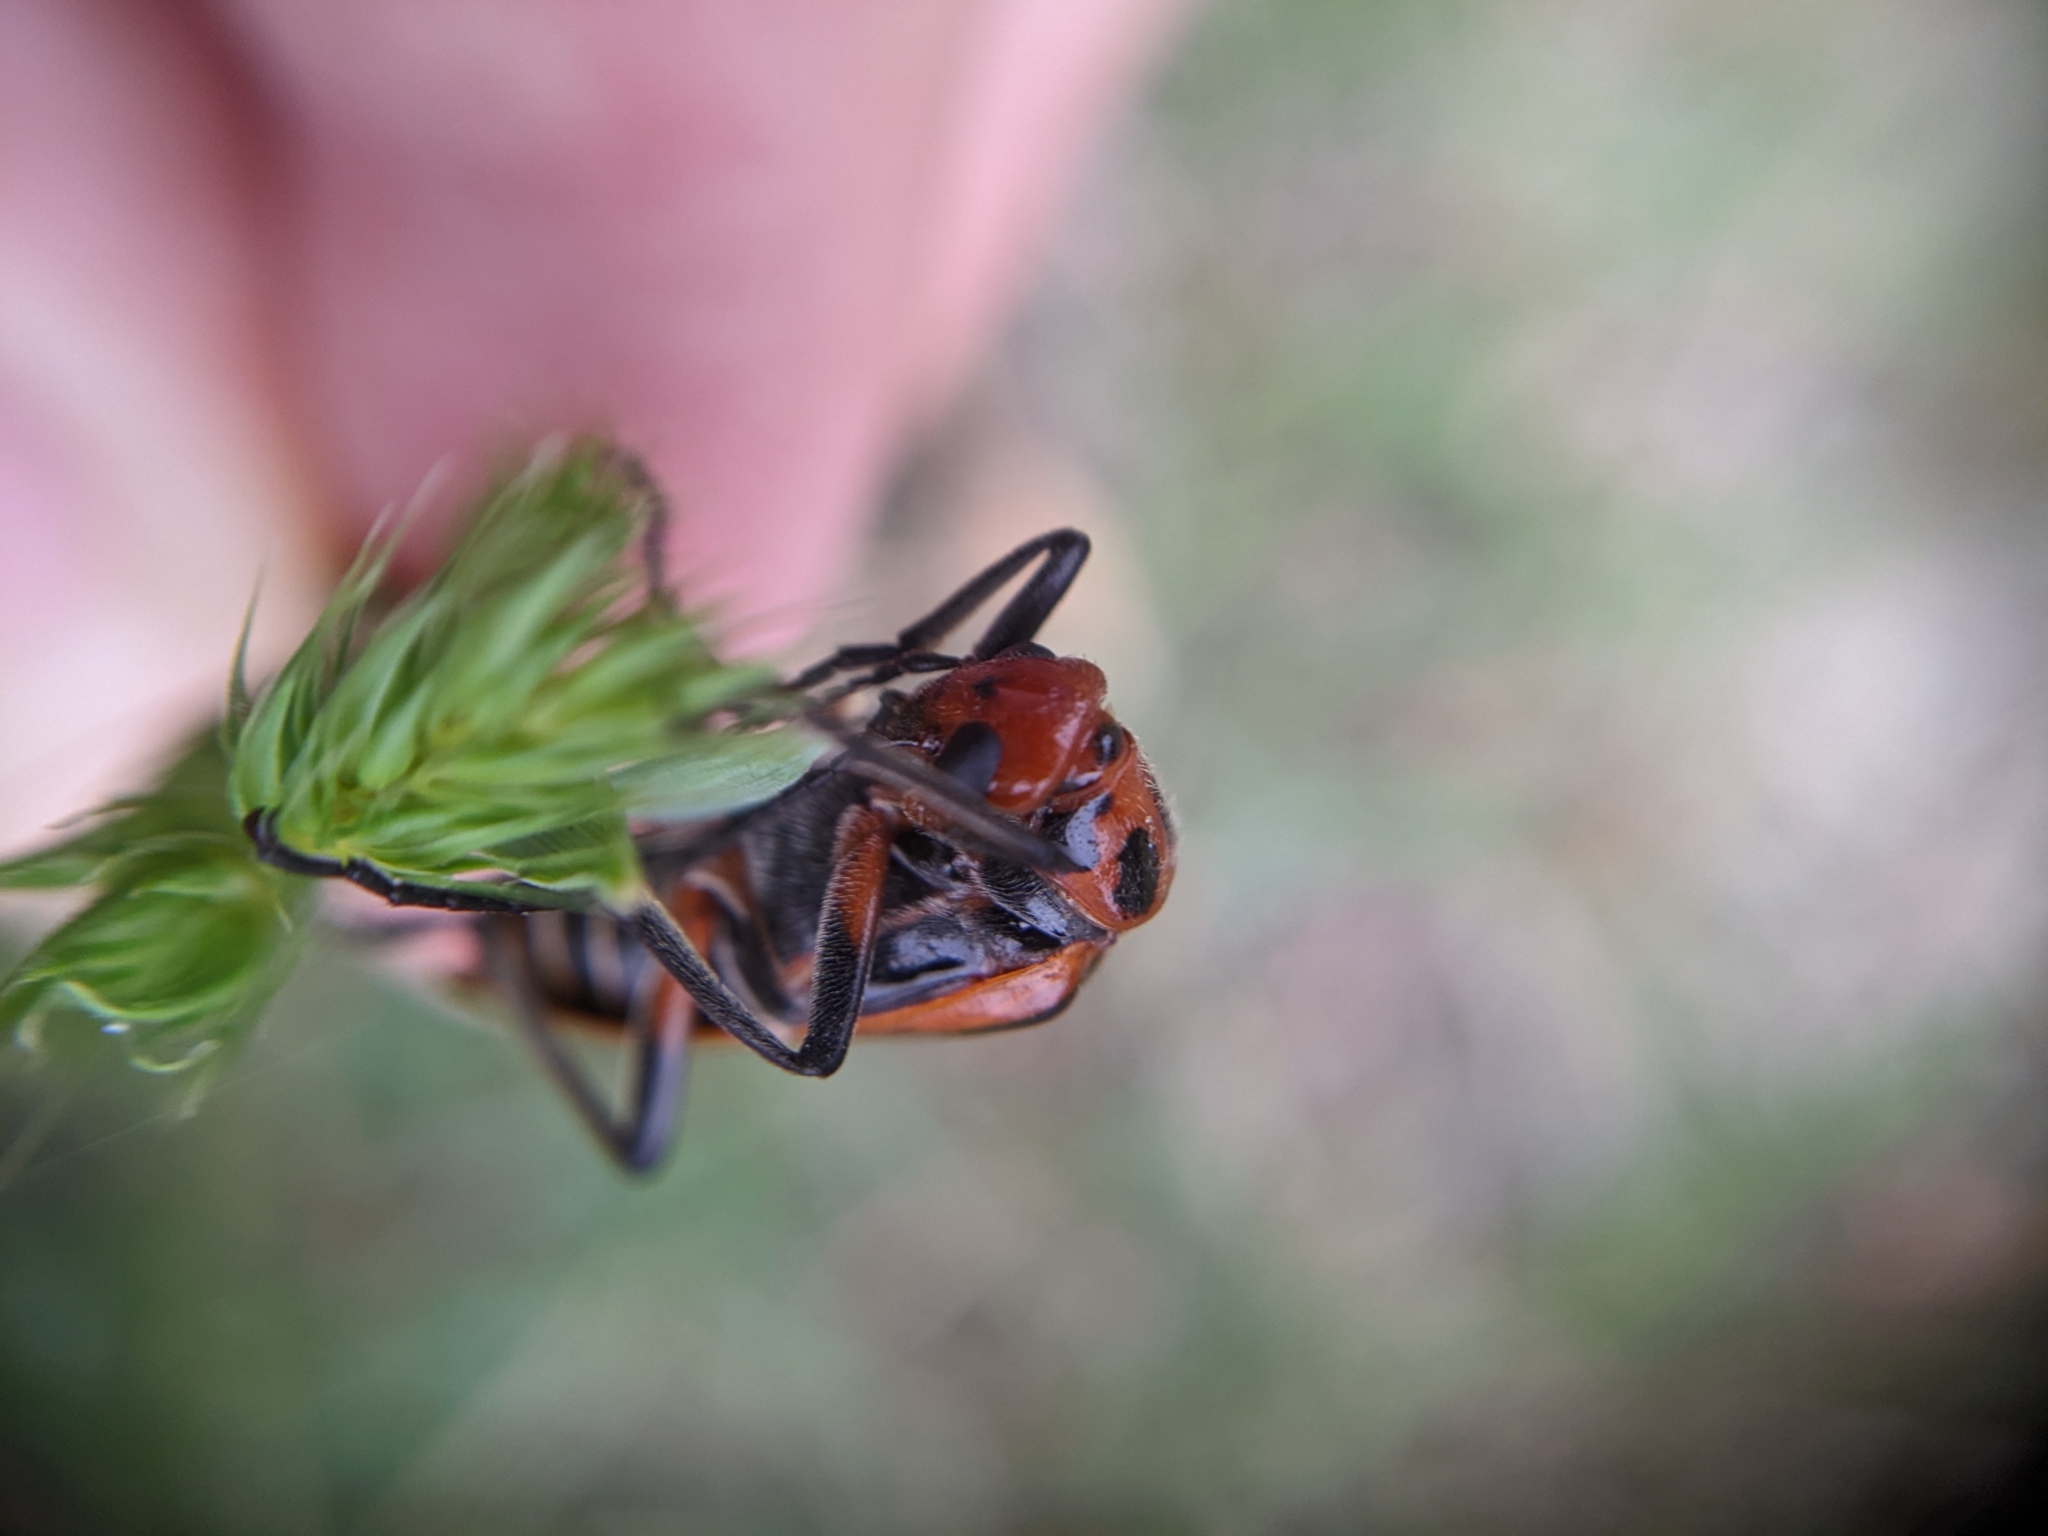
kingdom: Animalia
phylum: Arthropoda
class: Insecta
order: Coleoptera
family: Meloidae
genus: Pyrota
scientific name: Pyrota tenuicostatis
